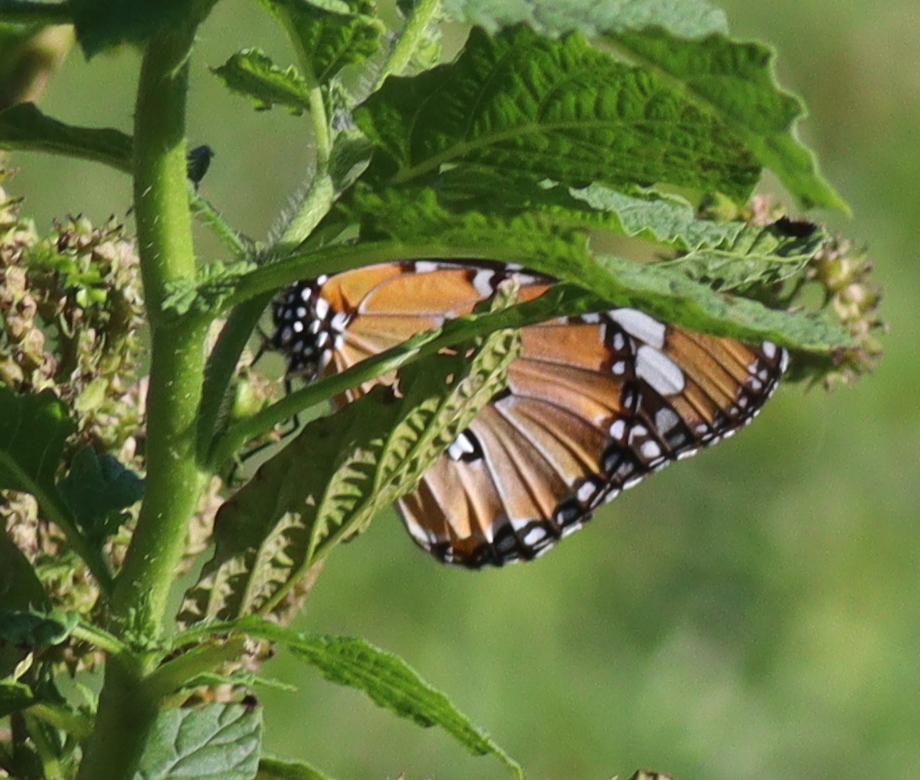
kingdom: Animalia
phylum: Arthropoda
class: Insecta
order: Lepidoptera
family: Nymphalidae
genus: Danaus
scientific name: Danaus chrysippus
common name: Plain tiger
